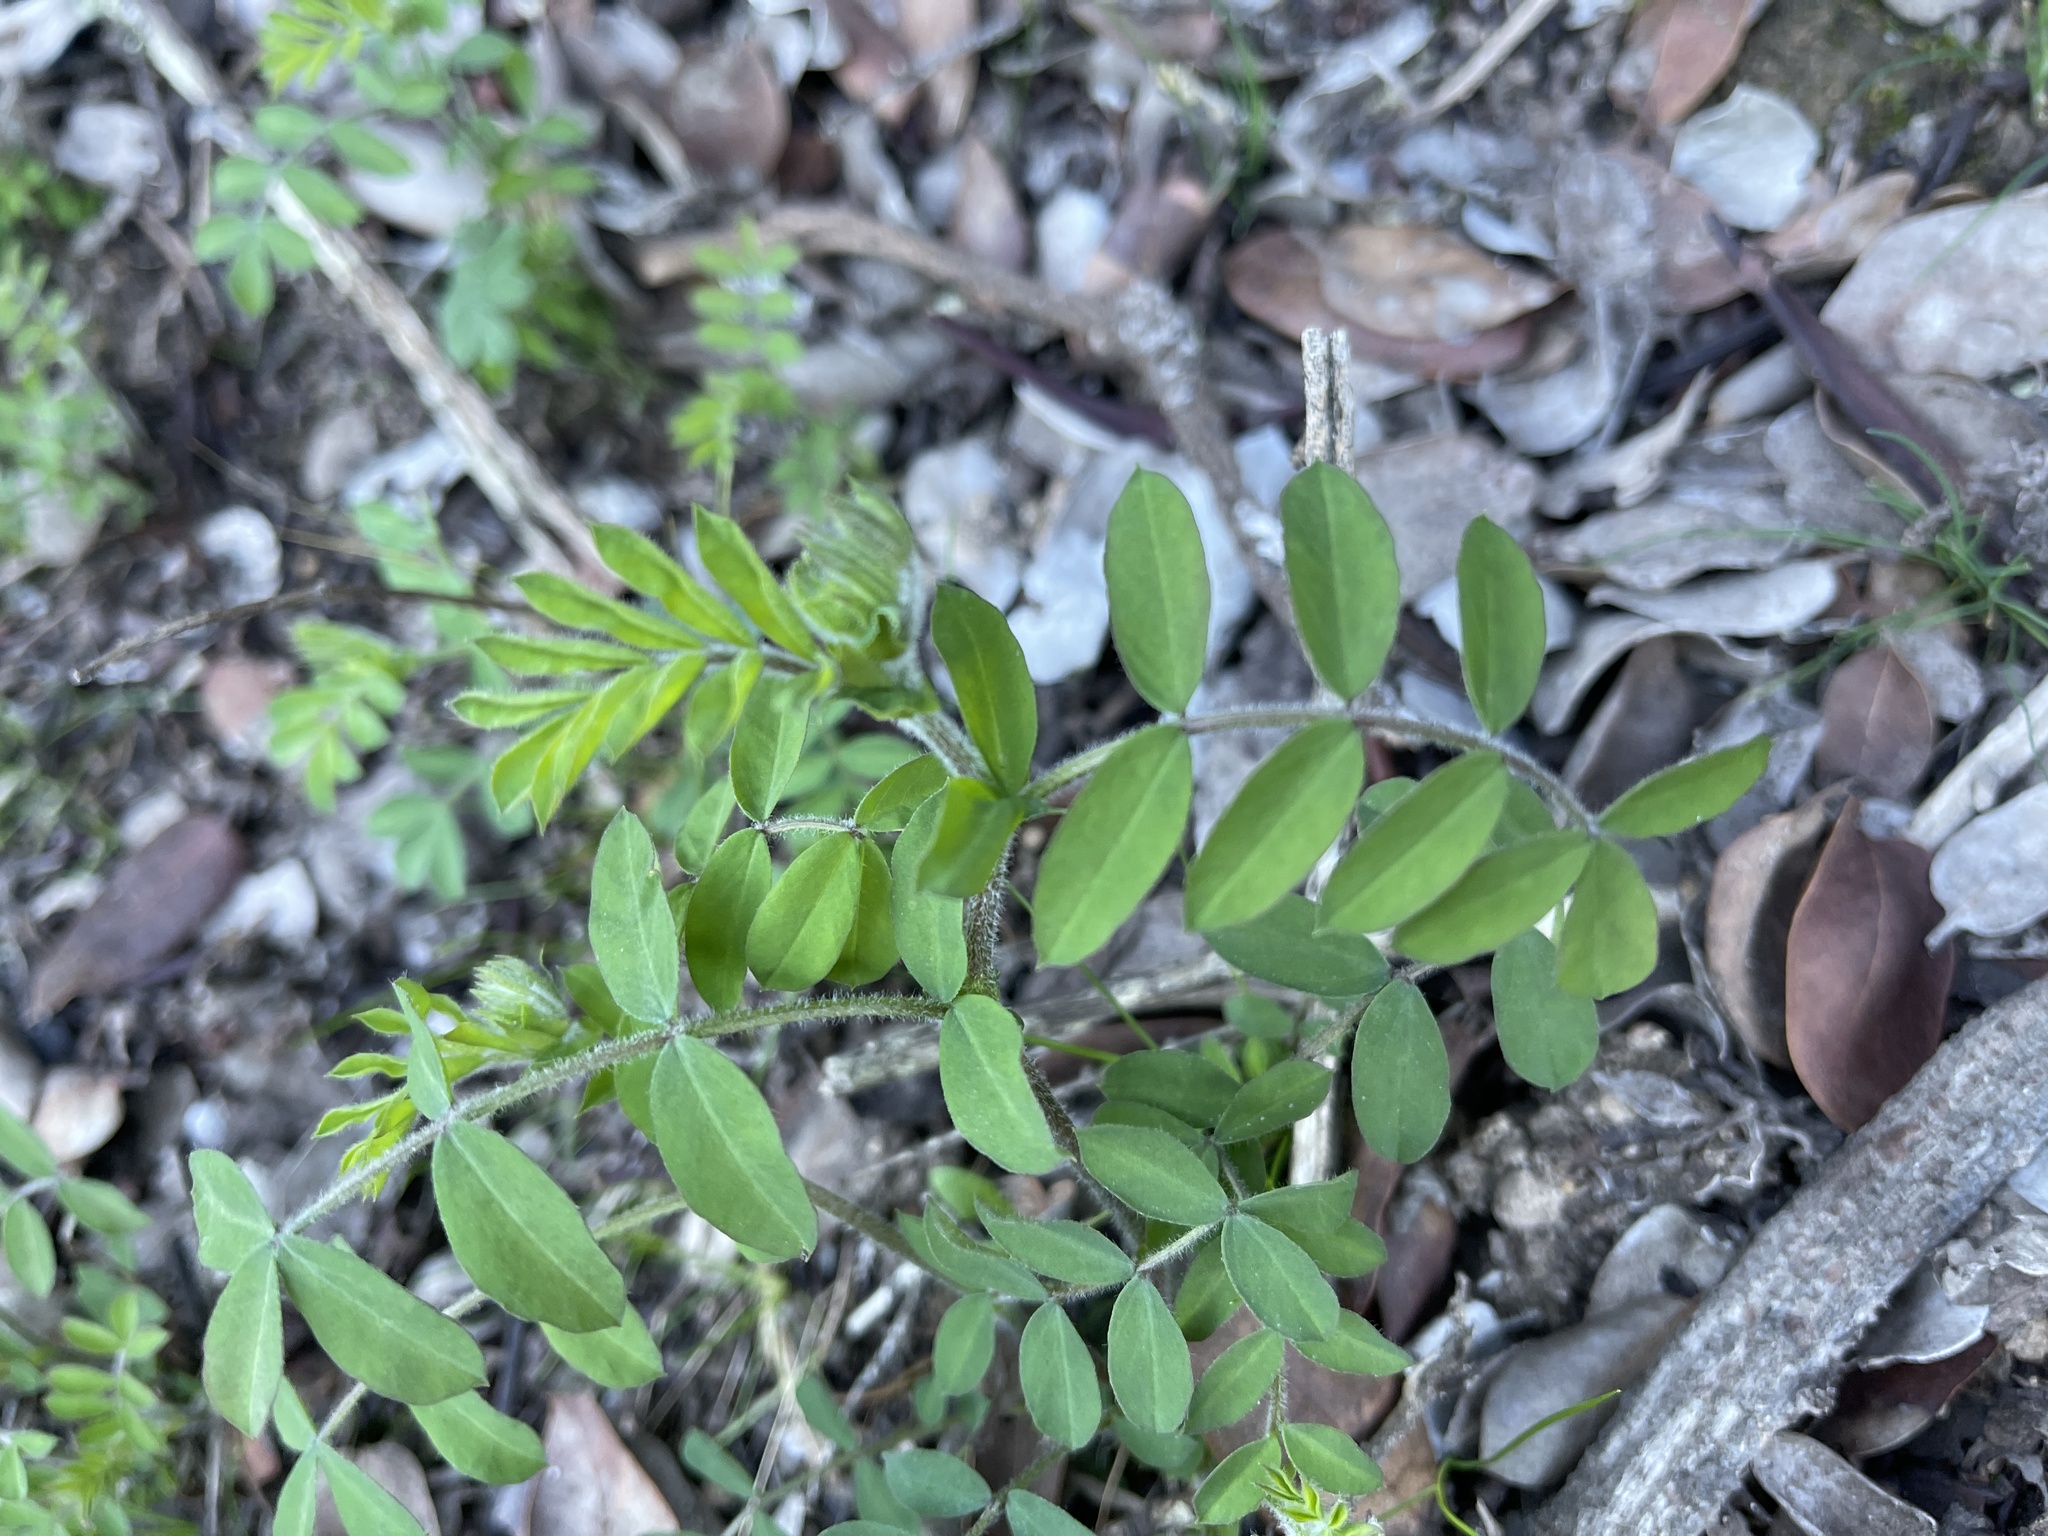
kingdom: Plantae
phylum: Tracheophyta
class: Magnoliopsida
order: Fabales
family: Fabaceae
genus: Hosackia
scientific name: Hosackia stipularis
